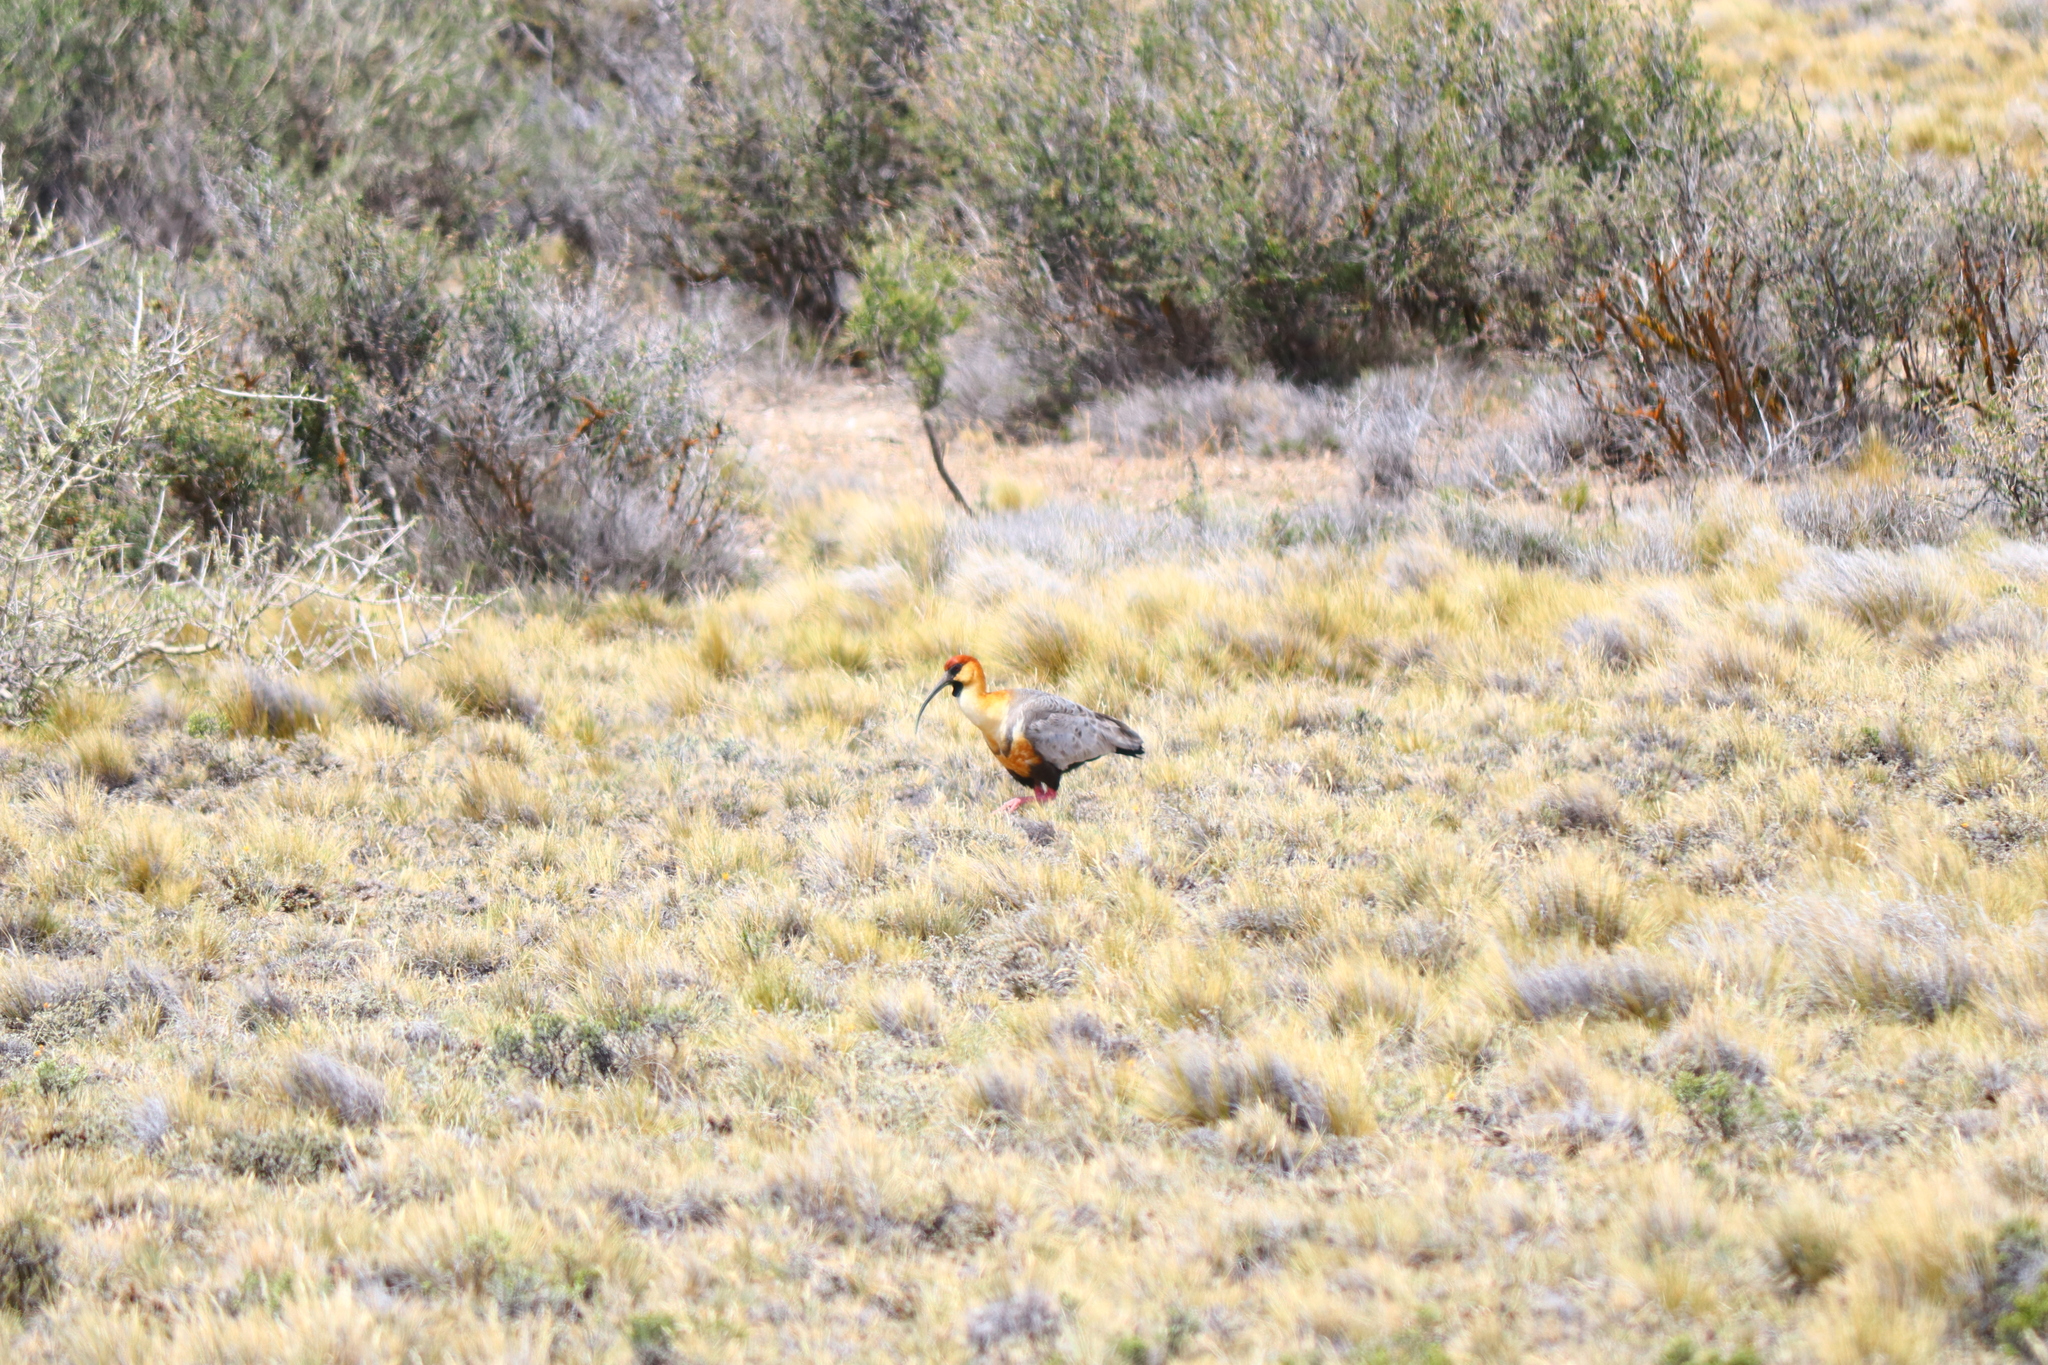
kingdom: Animalia
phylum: Chordata
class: Aves
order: Pelecaniformes
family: Threskiornithidae
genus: Theristicus
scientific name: Theristicus melanopis
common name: Black-faced ibis
